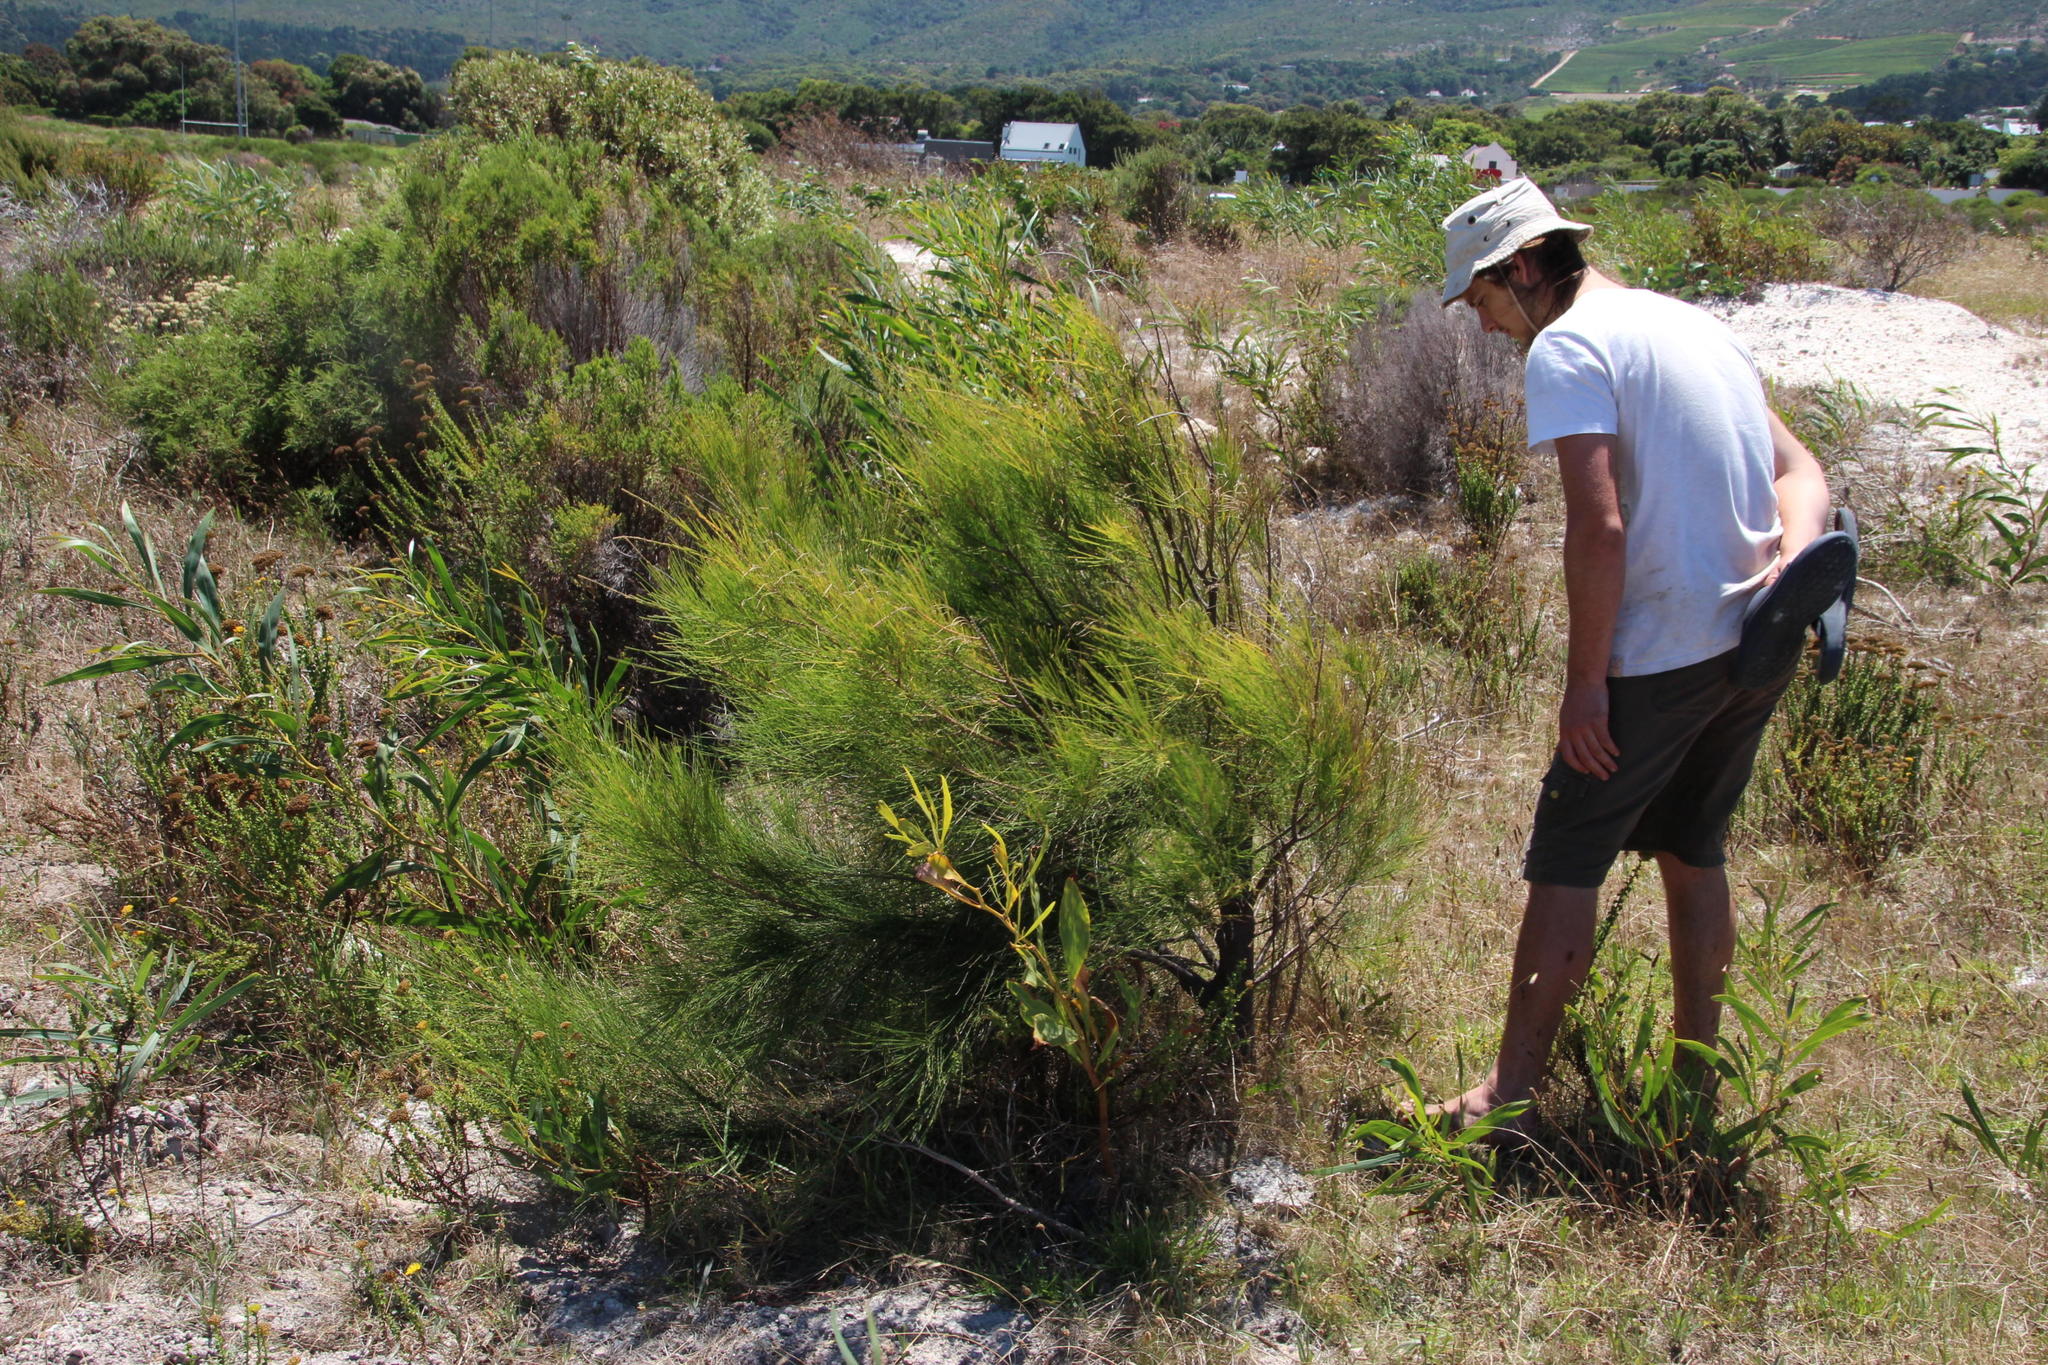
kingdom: Plantae
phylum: Tracheophyta
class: Magnoliopsida
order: Fagales
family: Casuarinaceae
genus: Casuarina
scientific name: Casuarina cunninghamiana
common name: River sheoak
